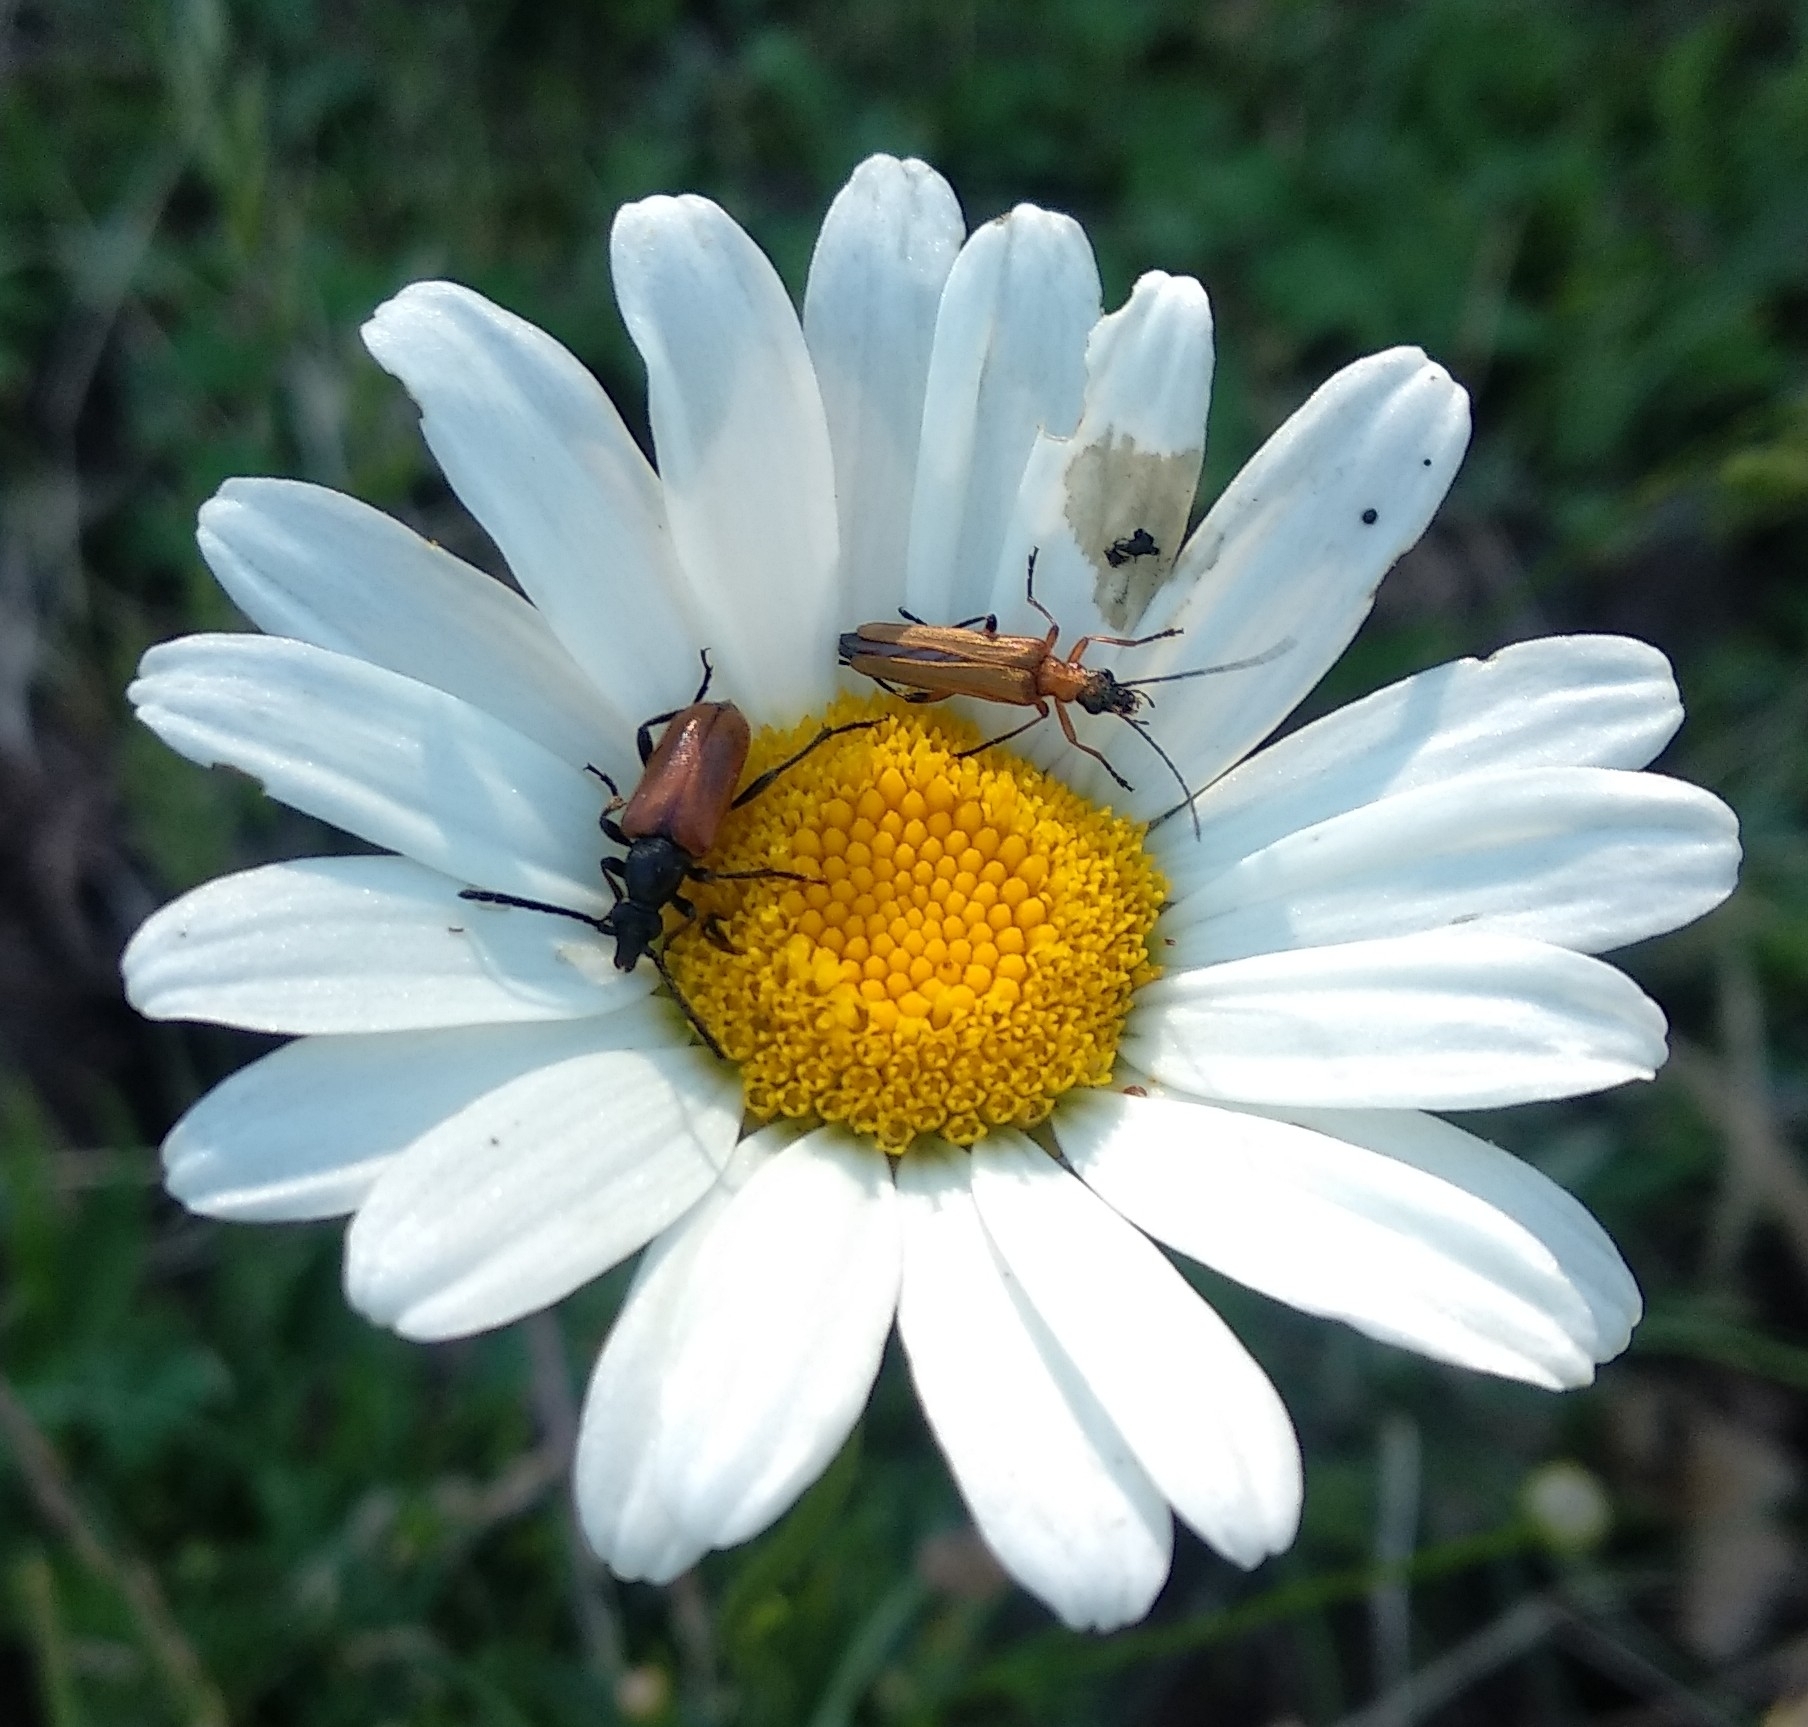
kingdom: Animalia
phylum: Arthropoda
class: Insecta
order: Coleoptera
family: Cerambycidae
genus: Pseudovadonia
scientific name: Pseudovadonia livida
